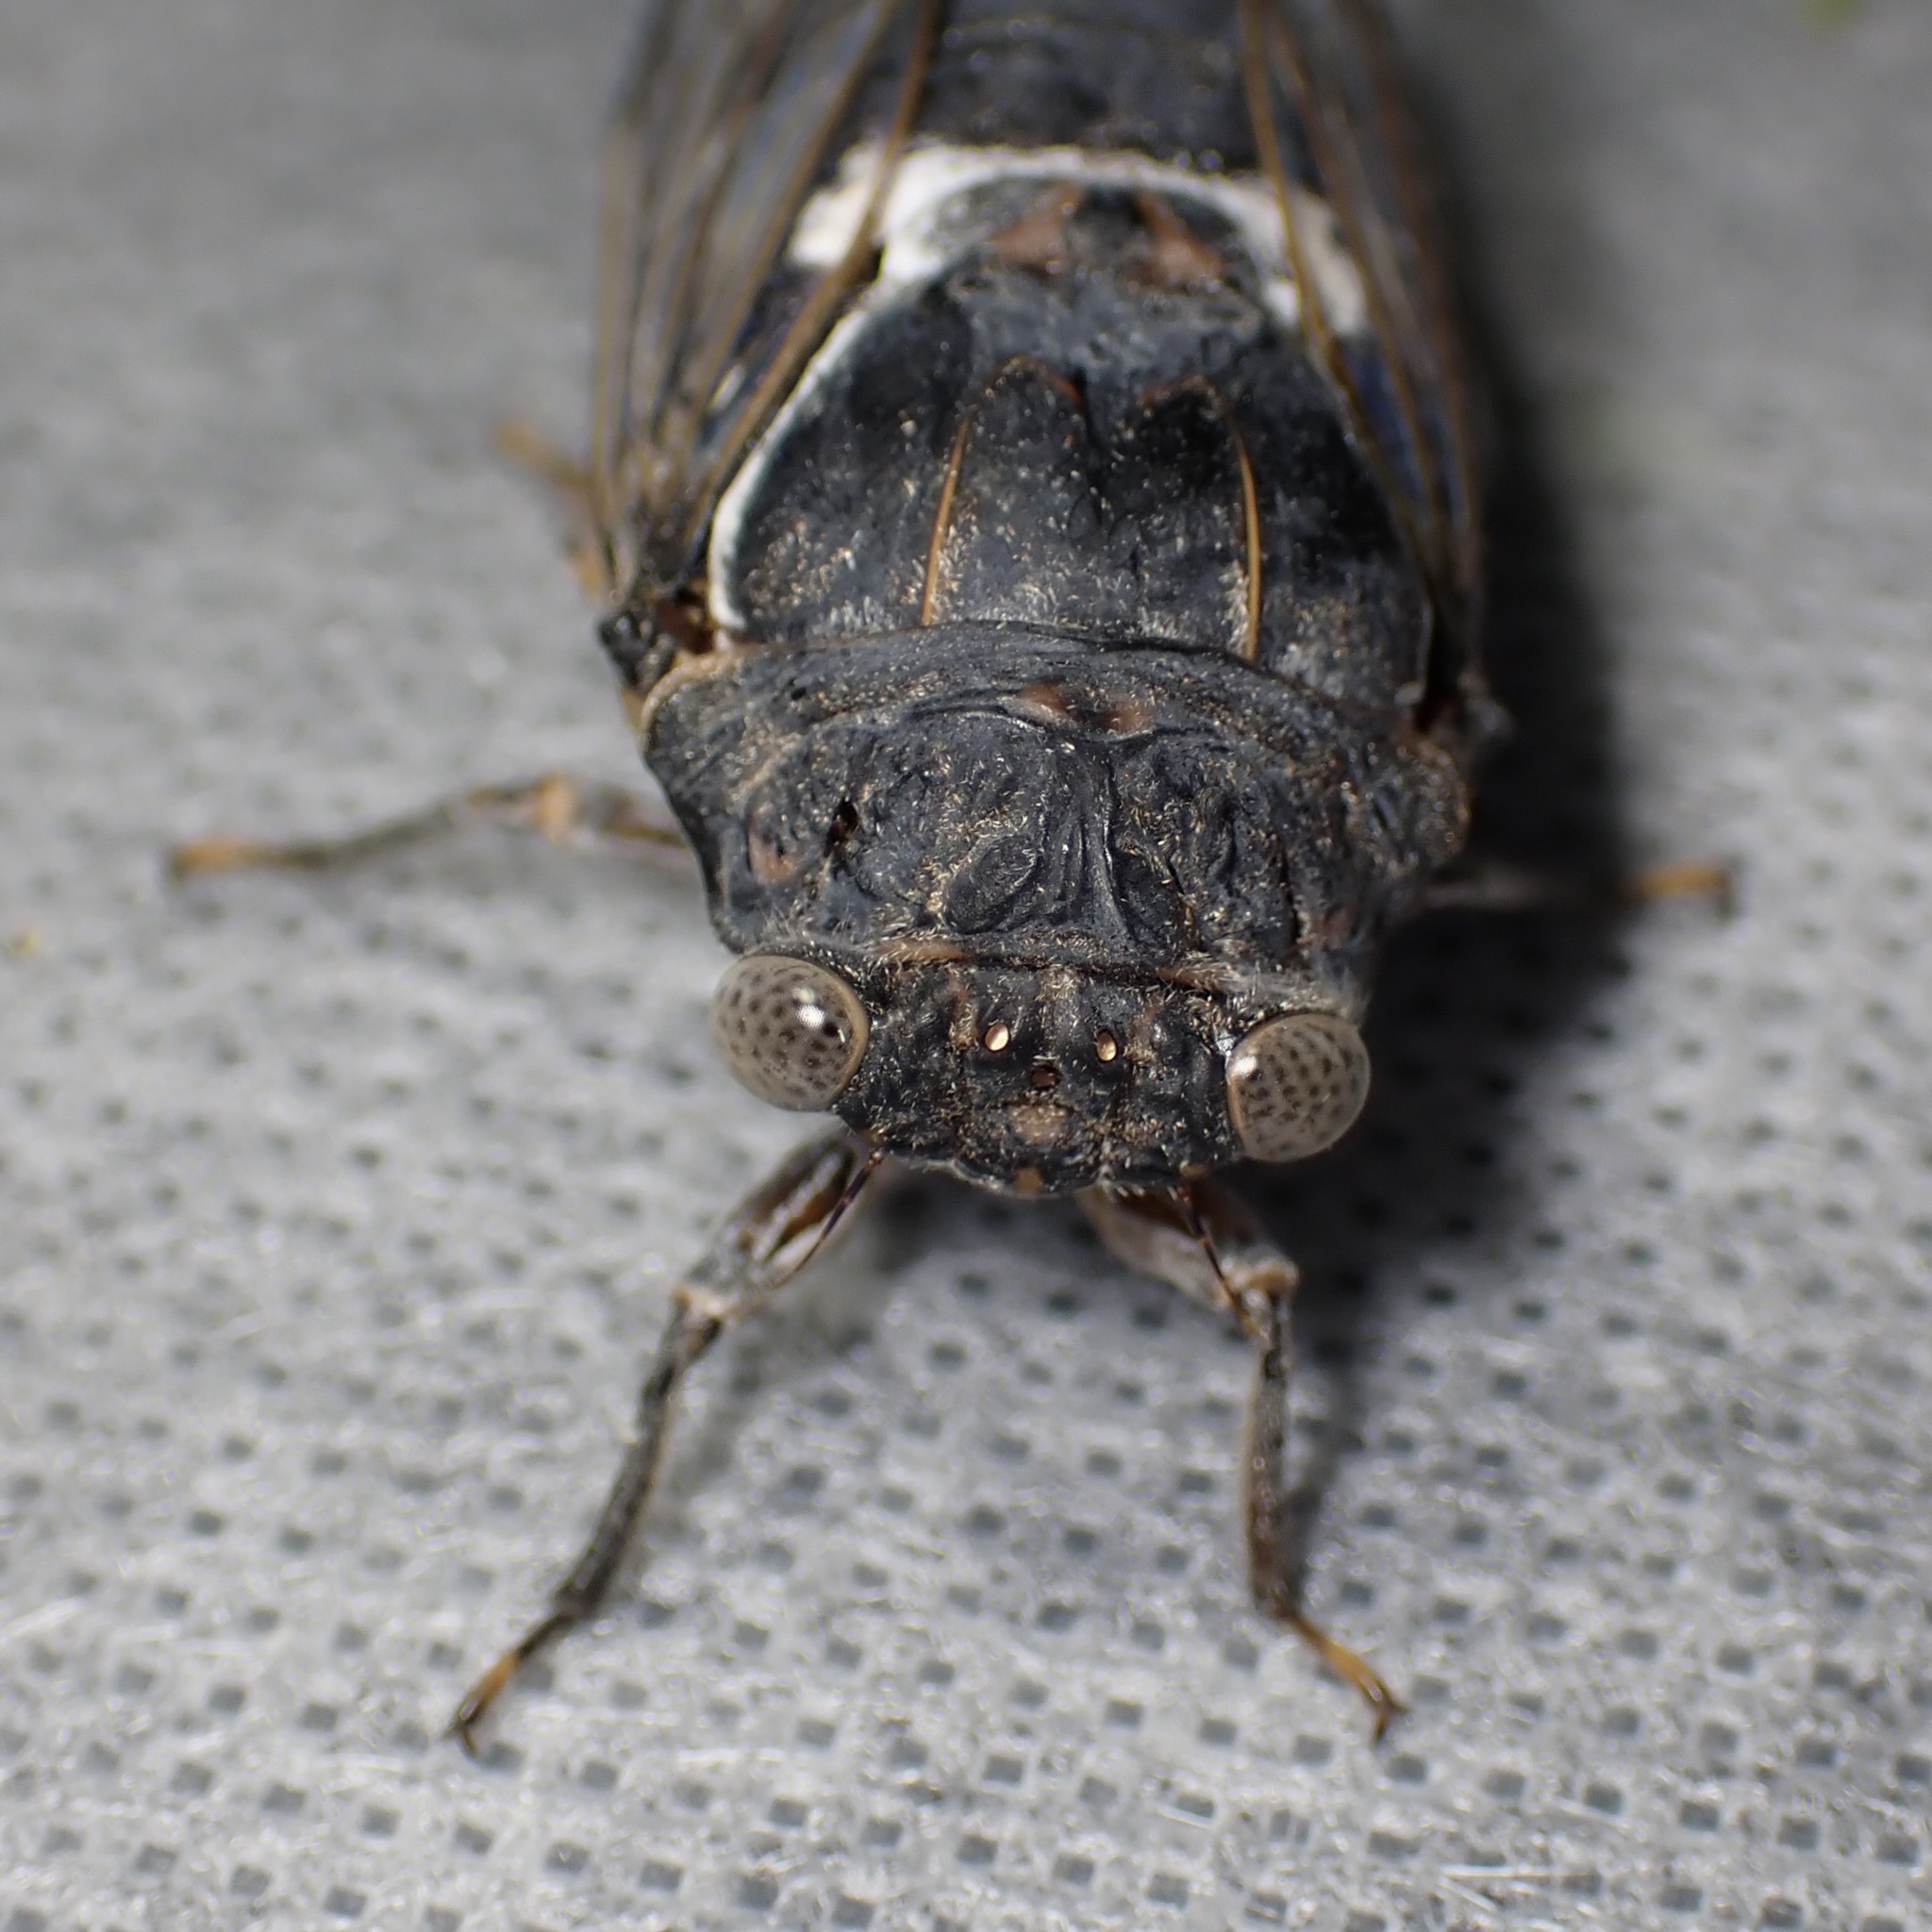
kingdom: Animalia
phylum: Arthropoda
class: Insecta
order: Hemiptera
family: Cicadidae
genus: Cacama
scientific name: Cacama moorei
